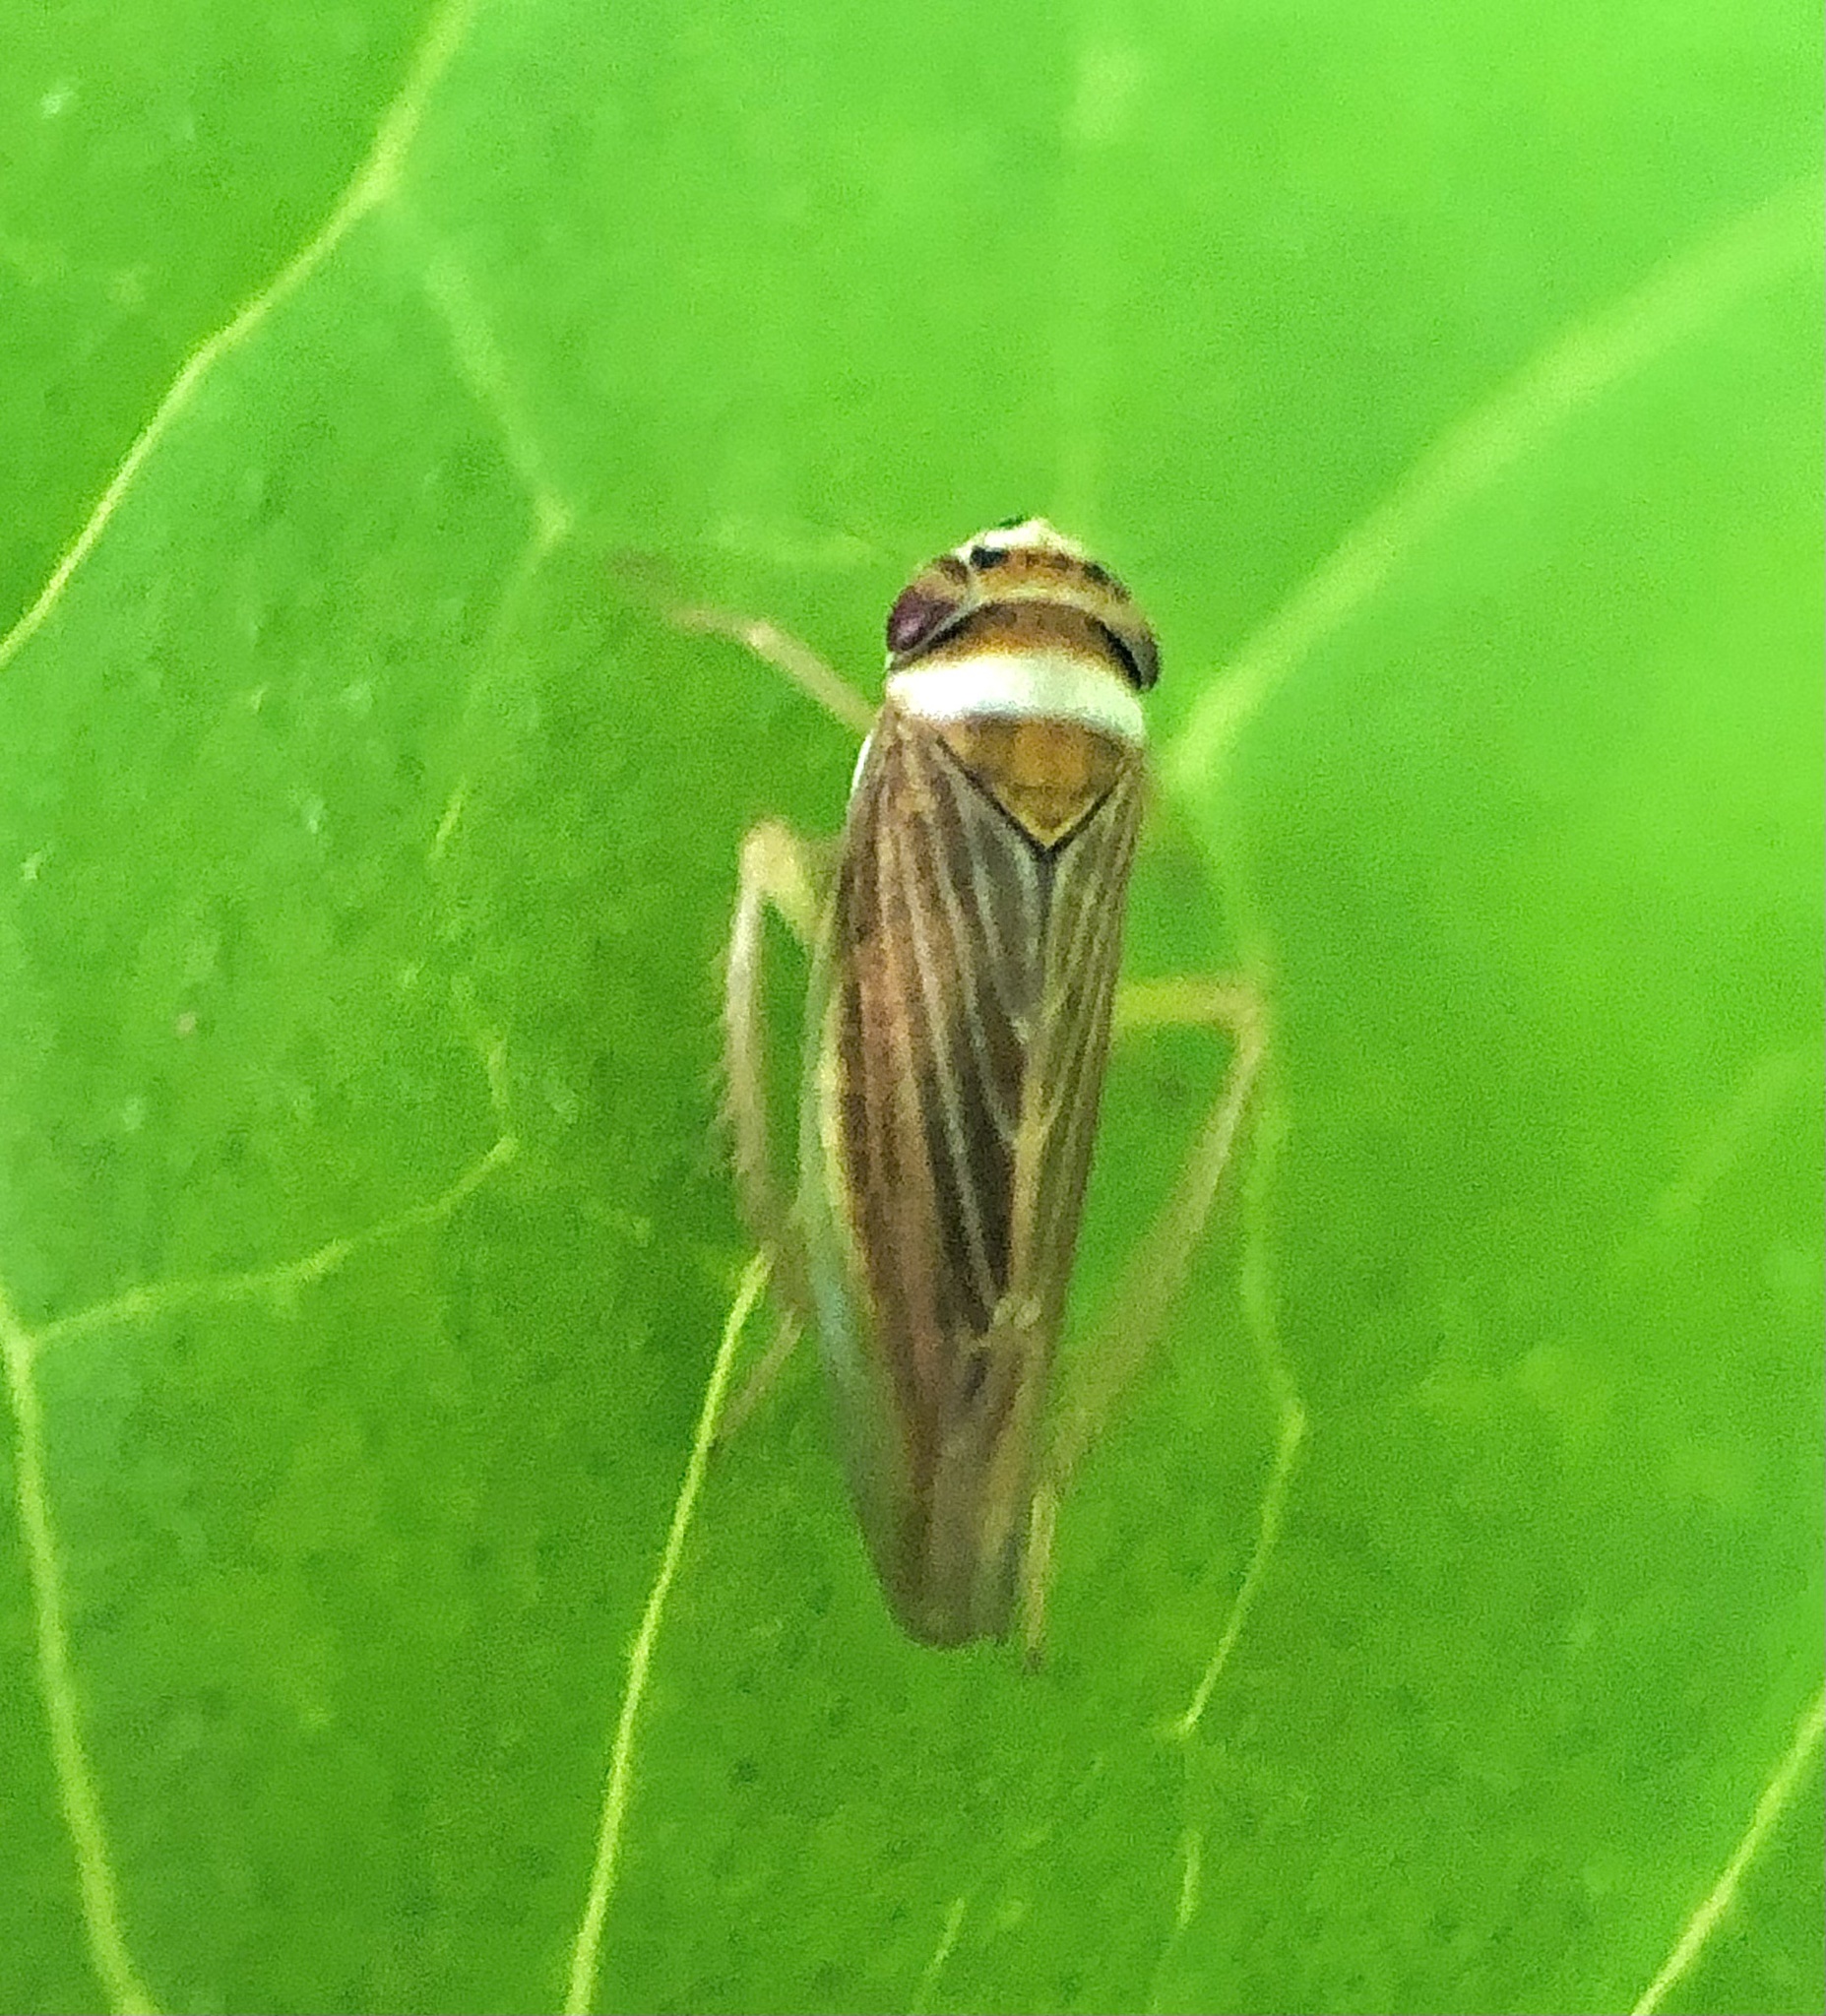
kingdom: Animalia
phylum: Arthropoda
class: Insecta
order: Hemiptera
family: Cicadellidae
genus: Colladonus
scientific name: Colladonus brunneus
